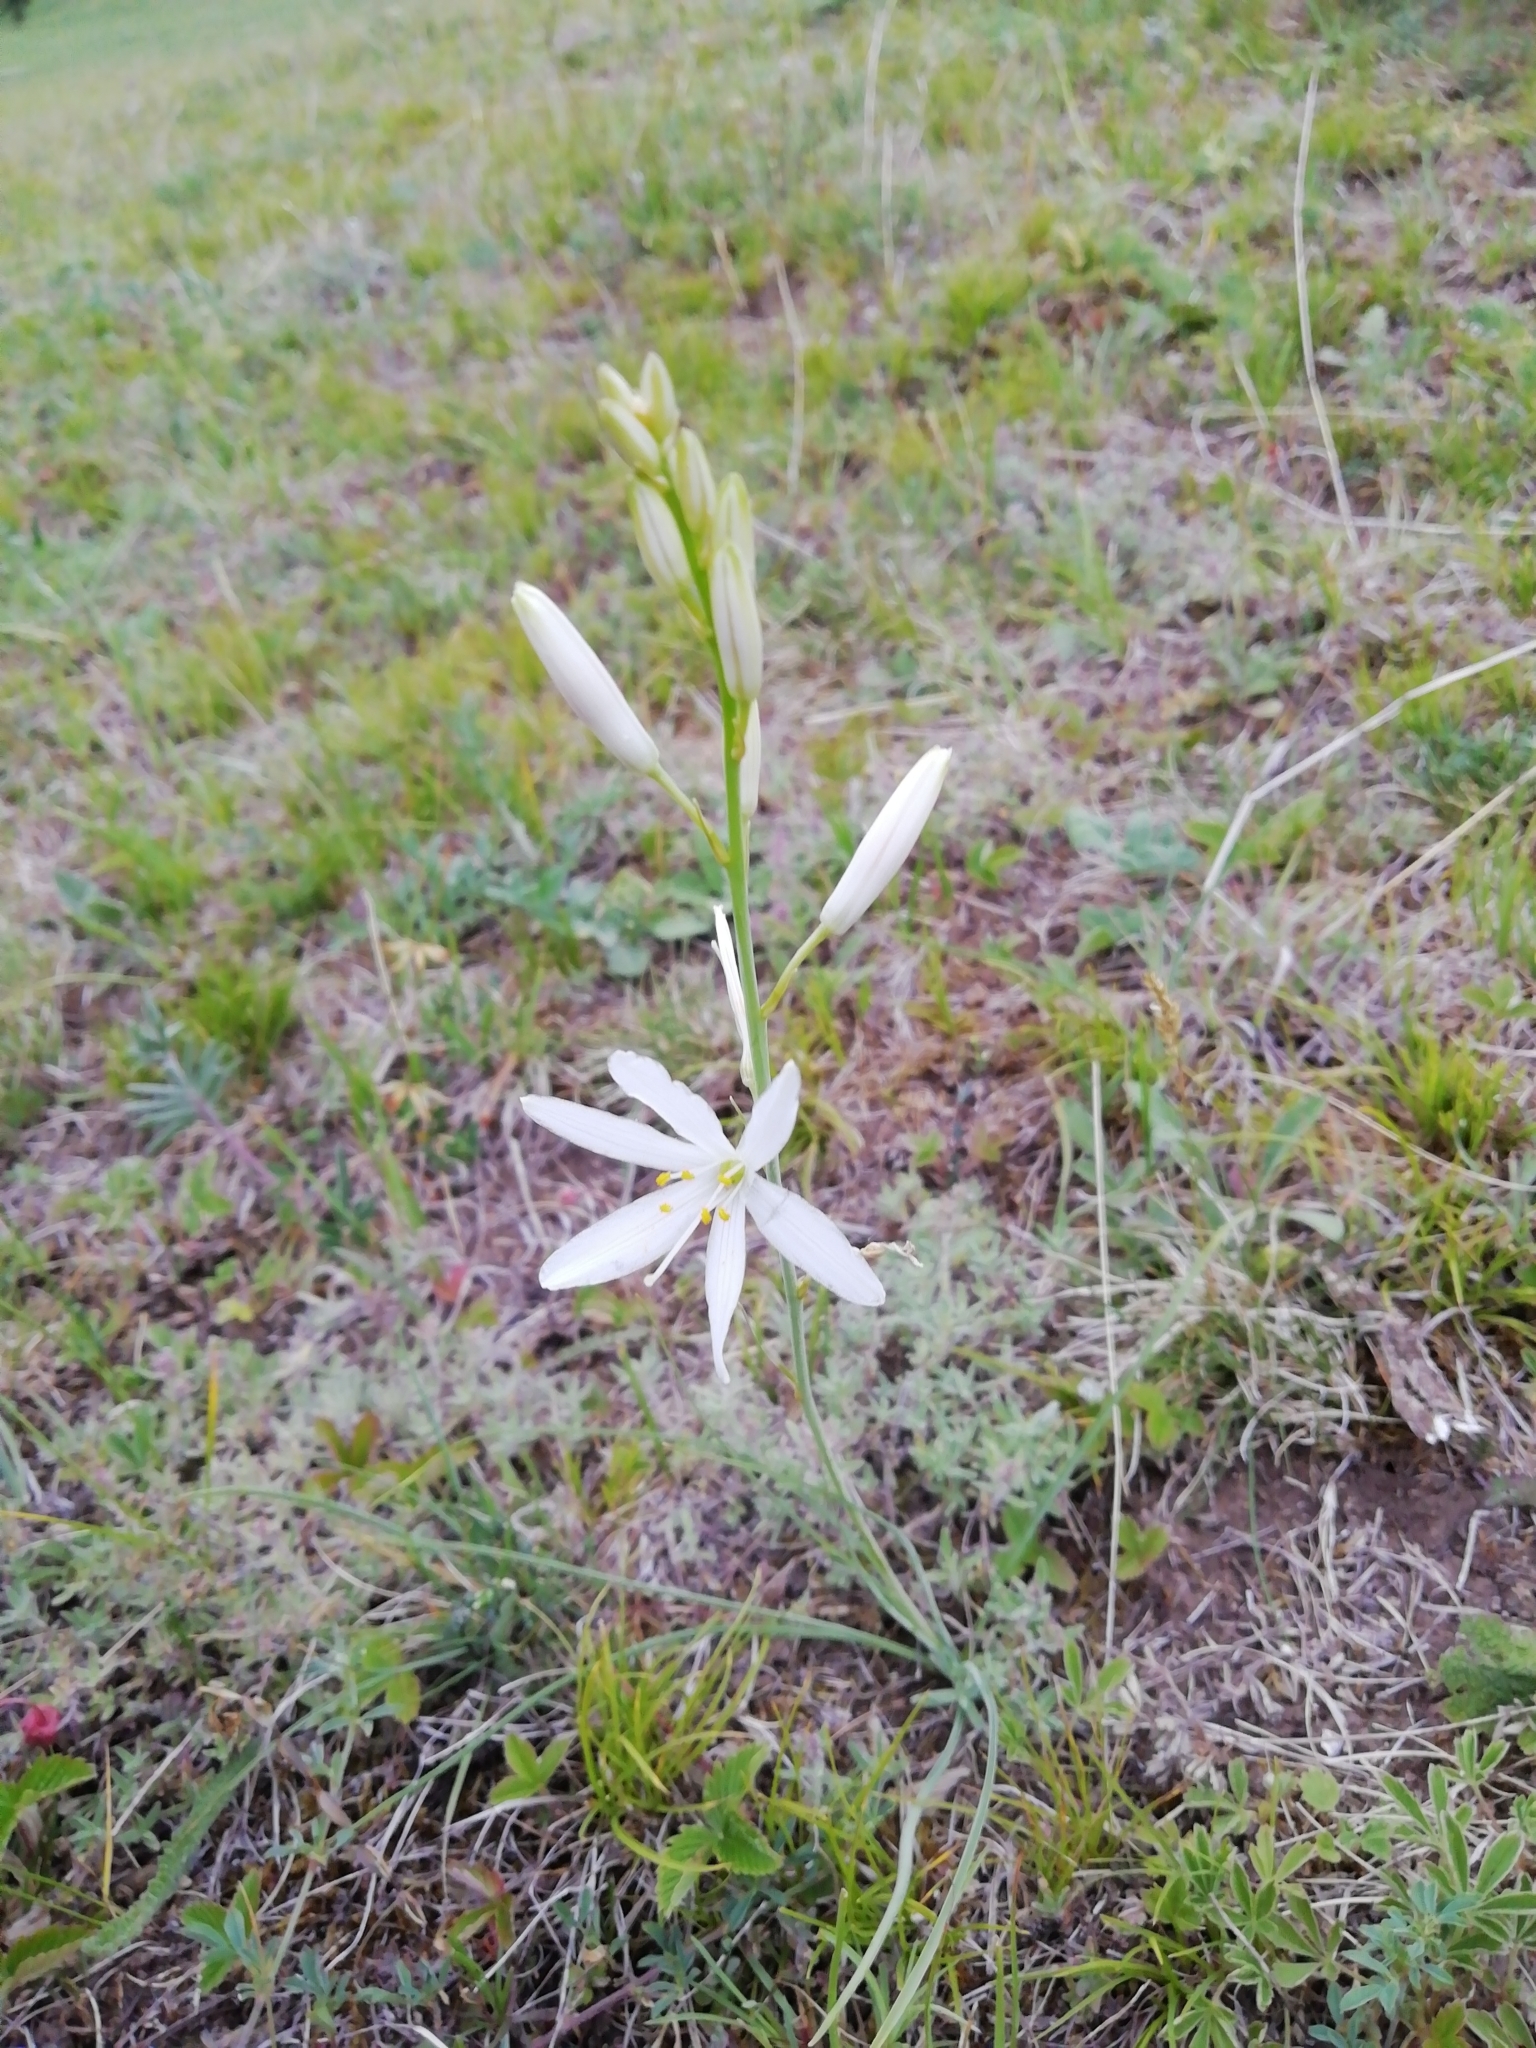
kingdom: Plantae
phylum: Tracheophyta
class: Liliopsida
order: Asparagales
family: Asparagaceae
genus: Anthericum
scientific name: Anthericum liliago
